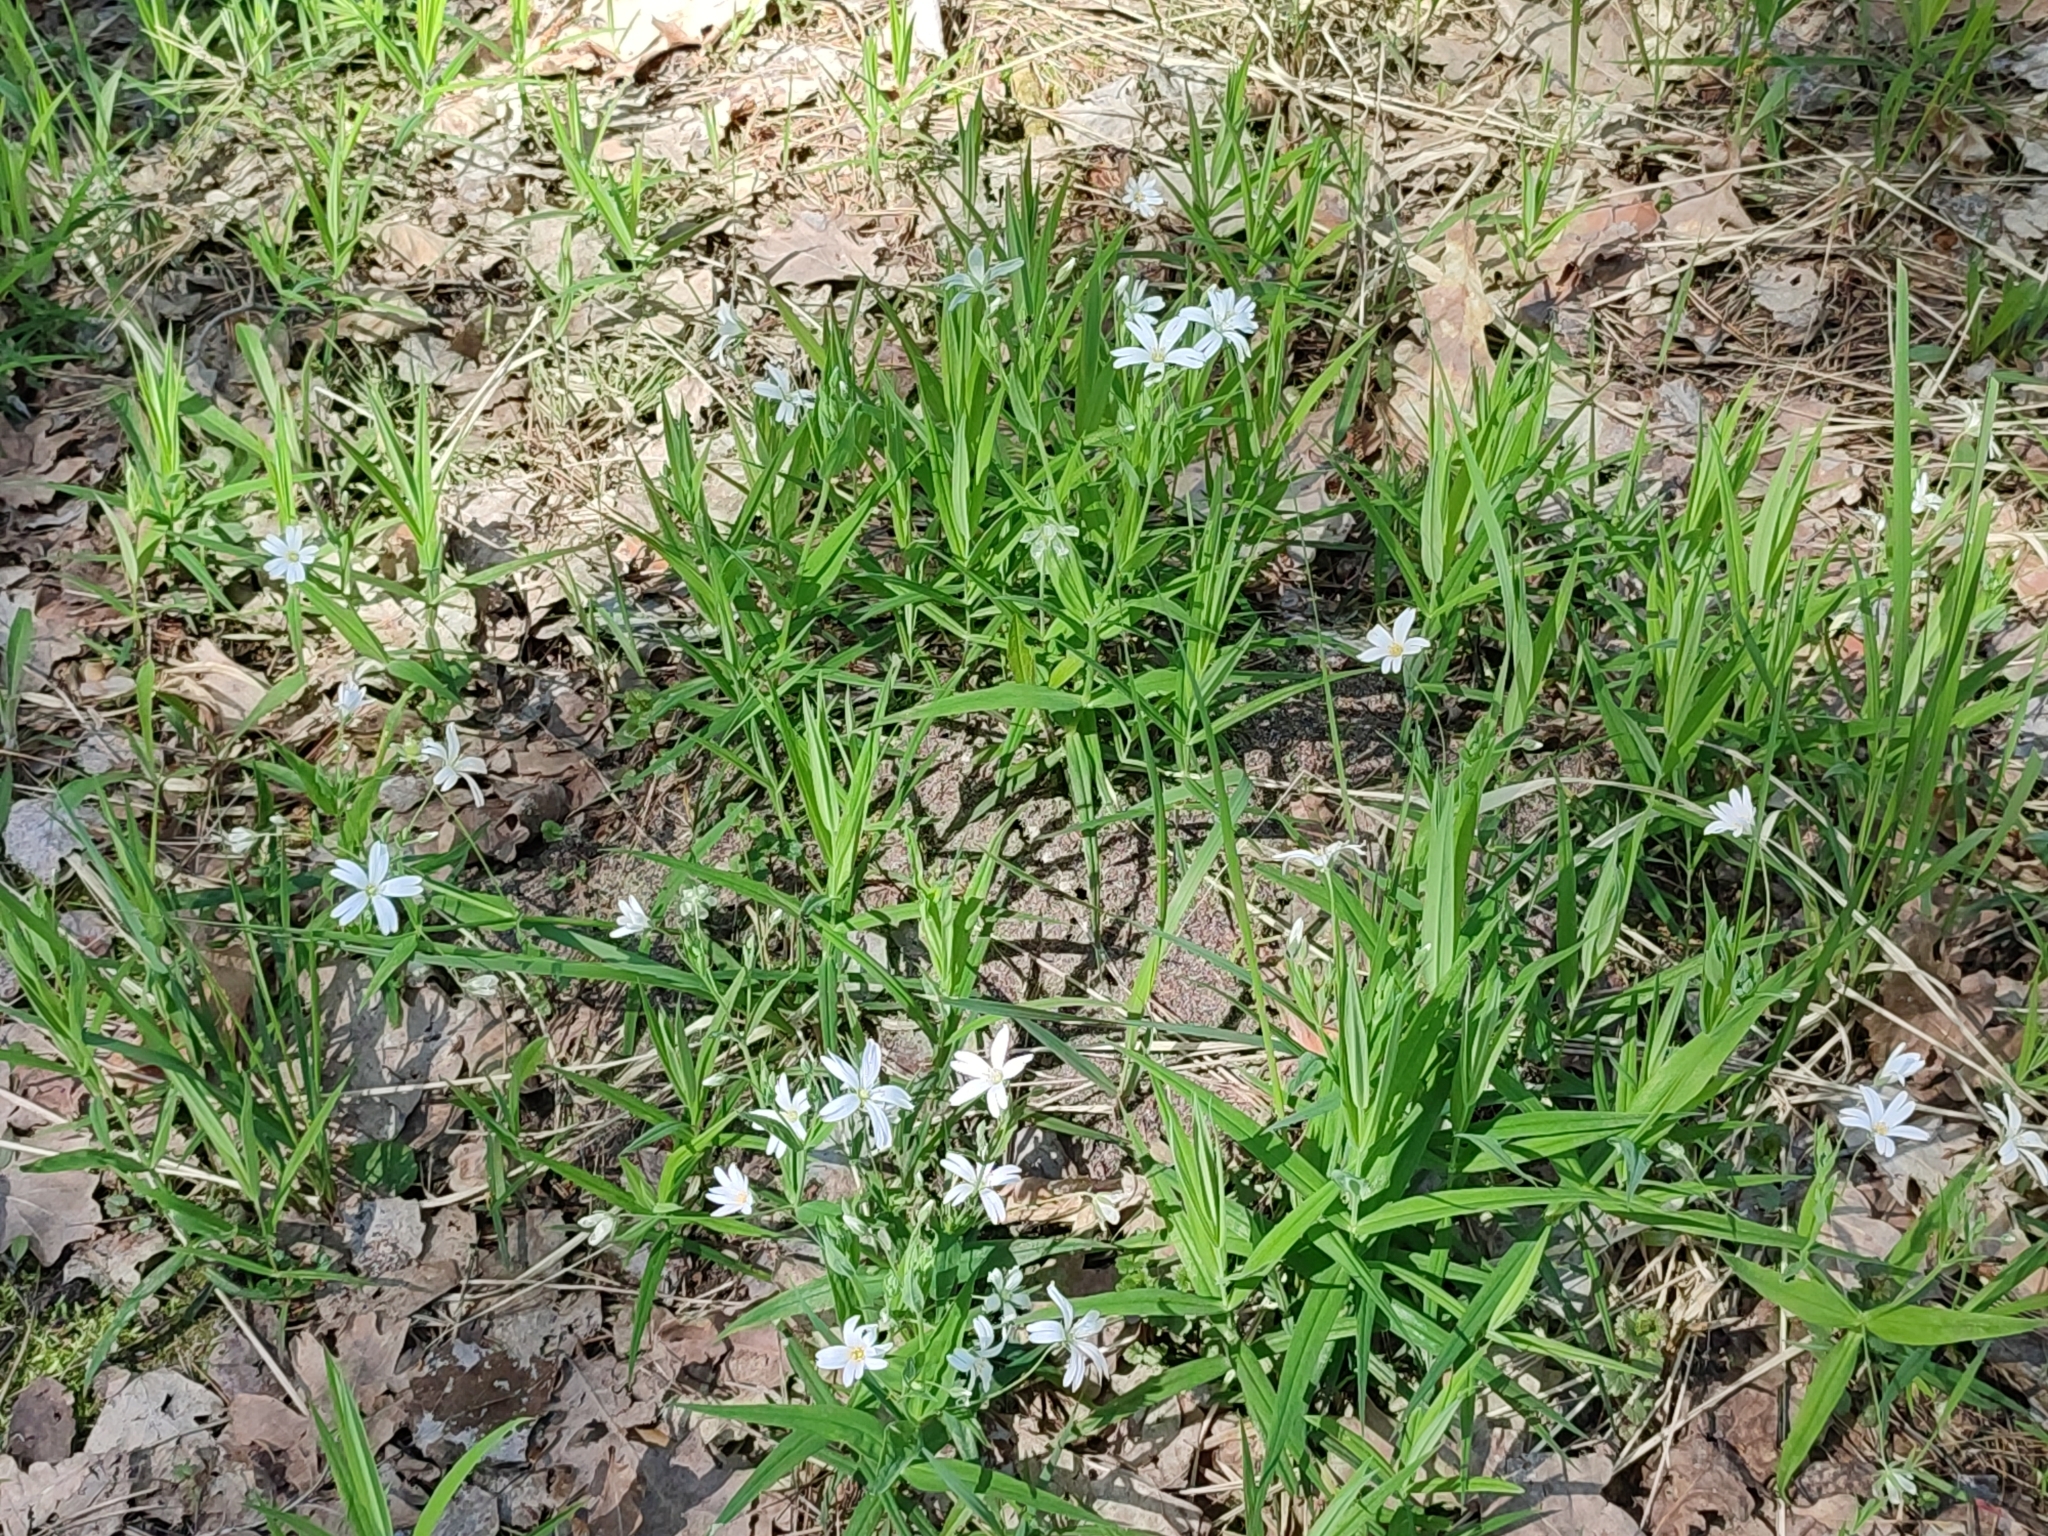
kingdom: Plantae
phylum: Tracheophyta
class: Magnoliopsida
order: Caryophyllales
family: Caryophyllaceae
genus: Rabelera
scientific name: Rabelera holostea
